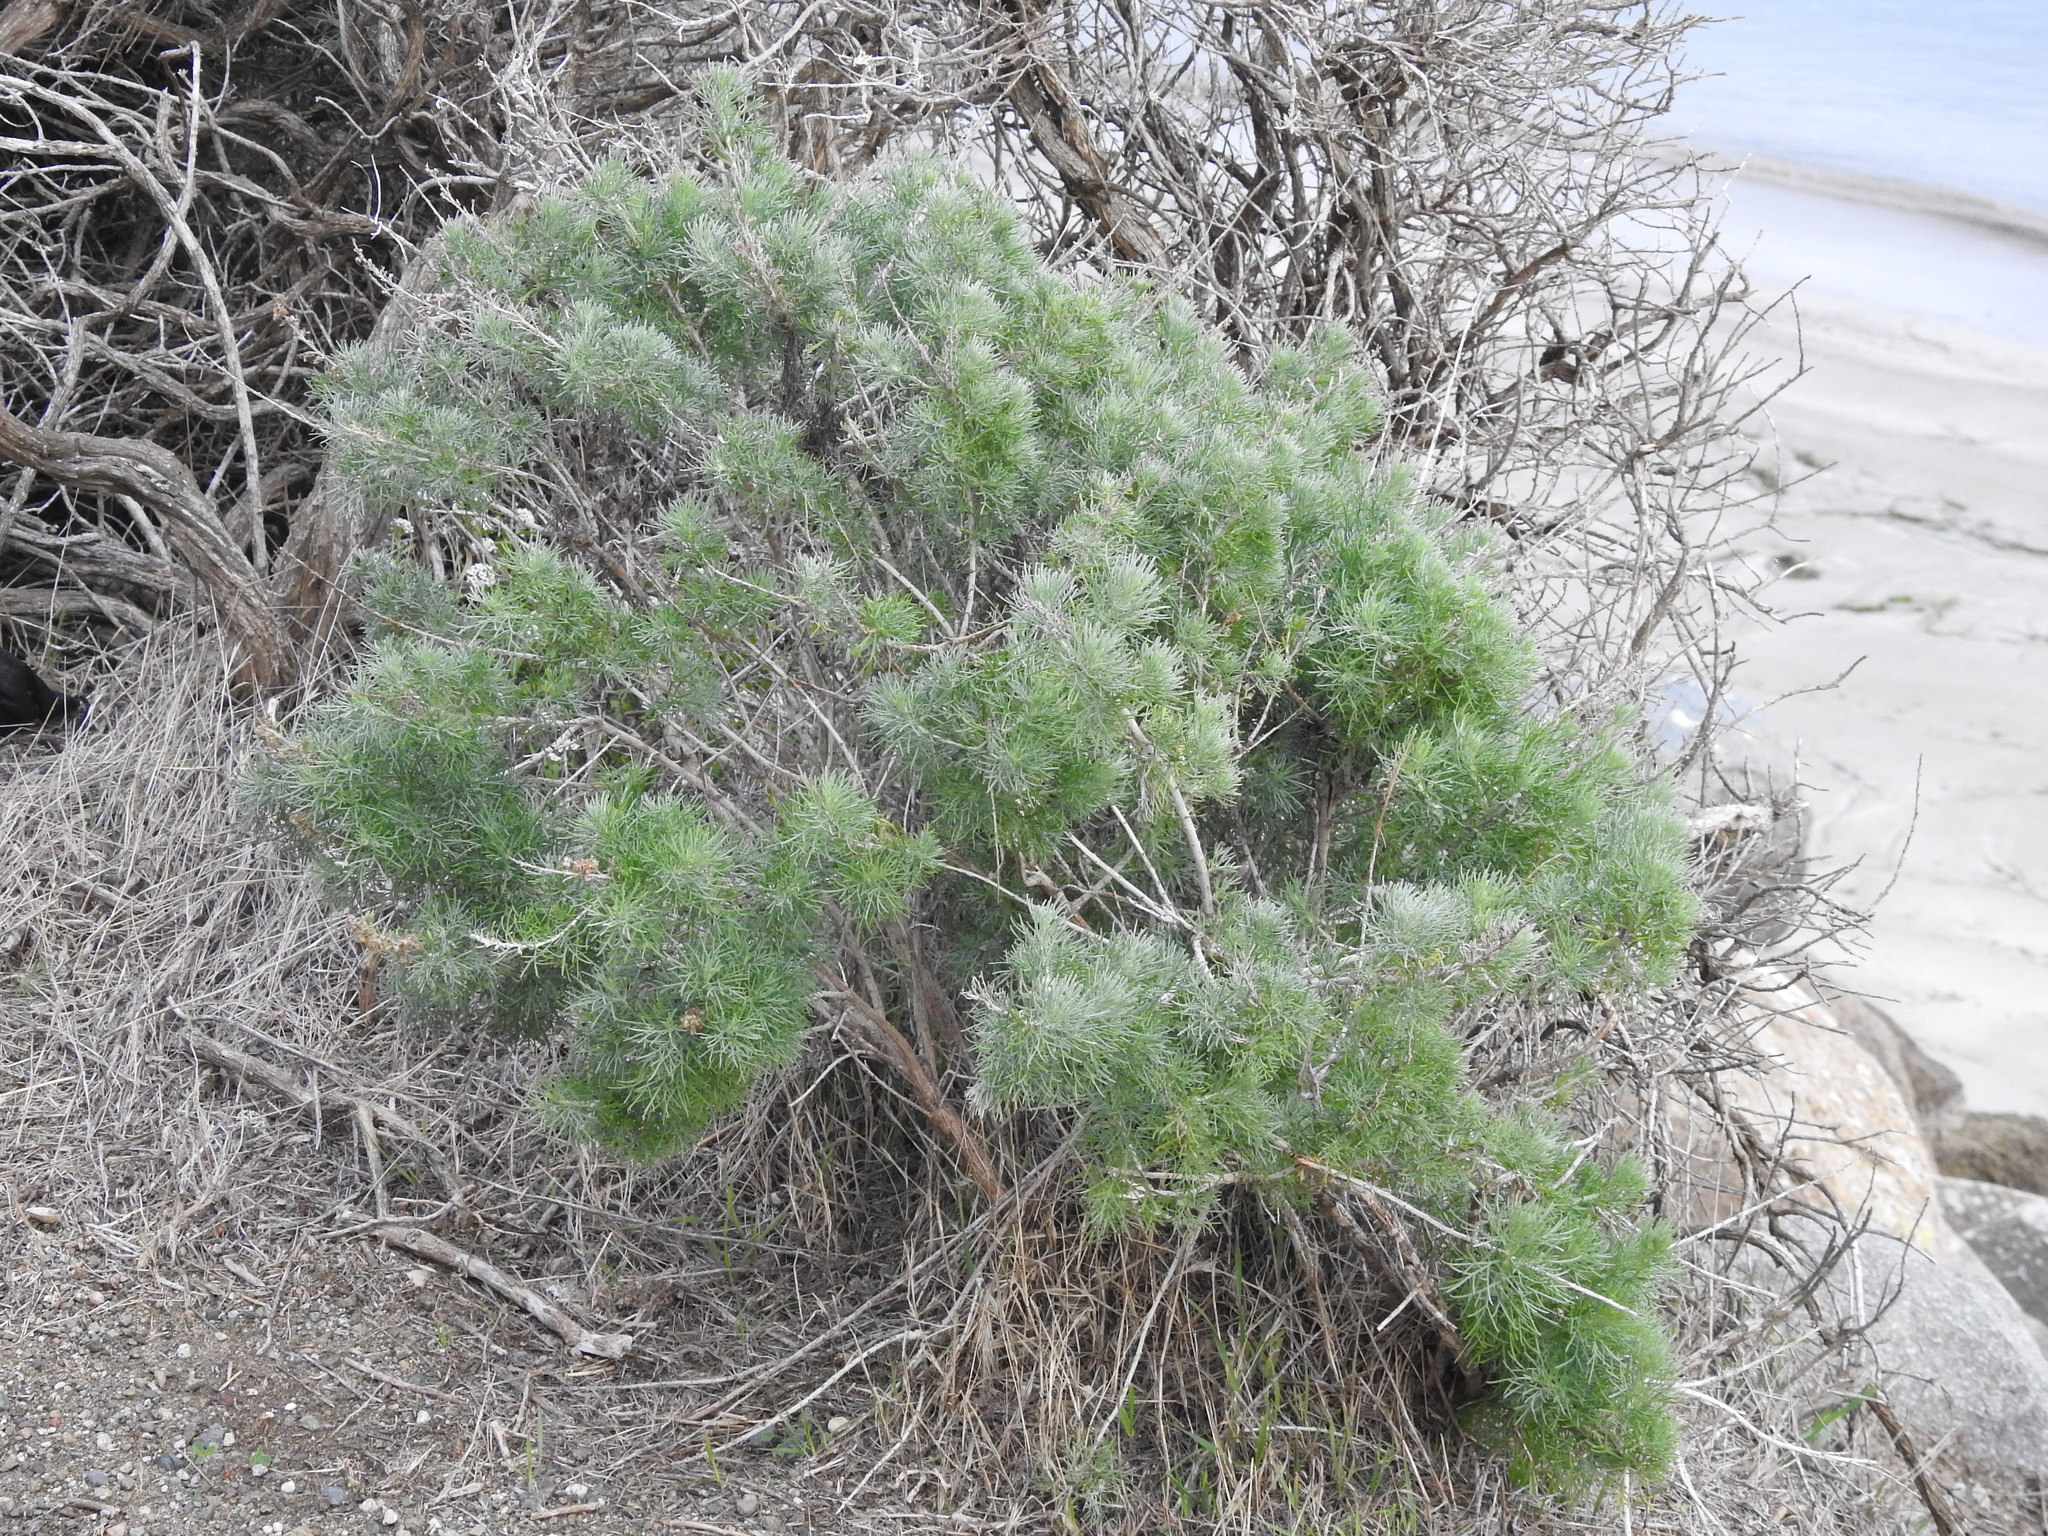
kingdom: Plantae
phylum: Tracheophyta
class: Magnoliopsida
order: Asterales
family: Asteraceae
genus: Artemisia
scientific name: Artemisia californica
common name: California sagebrush
